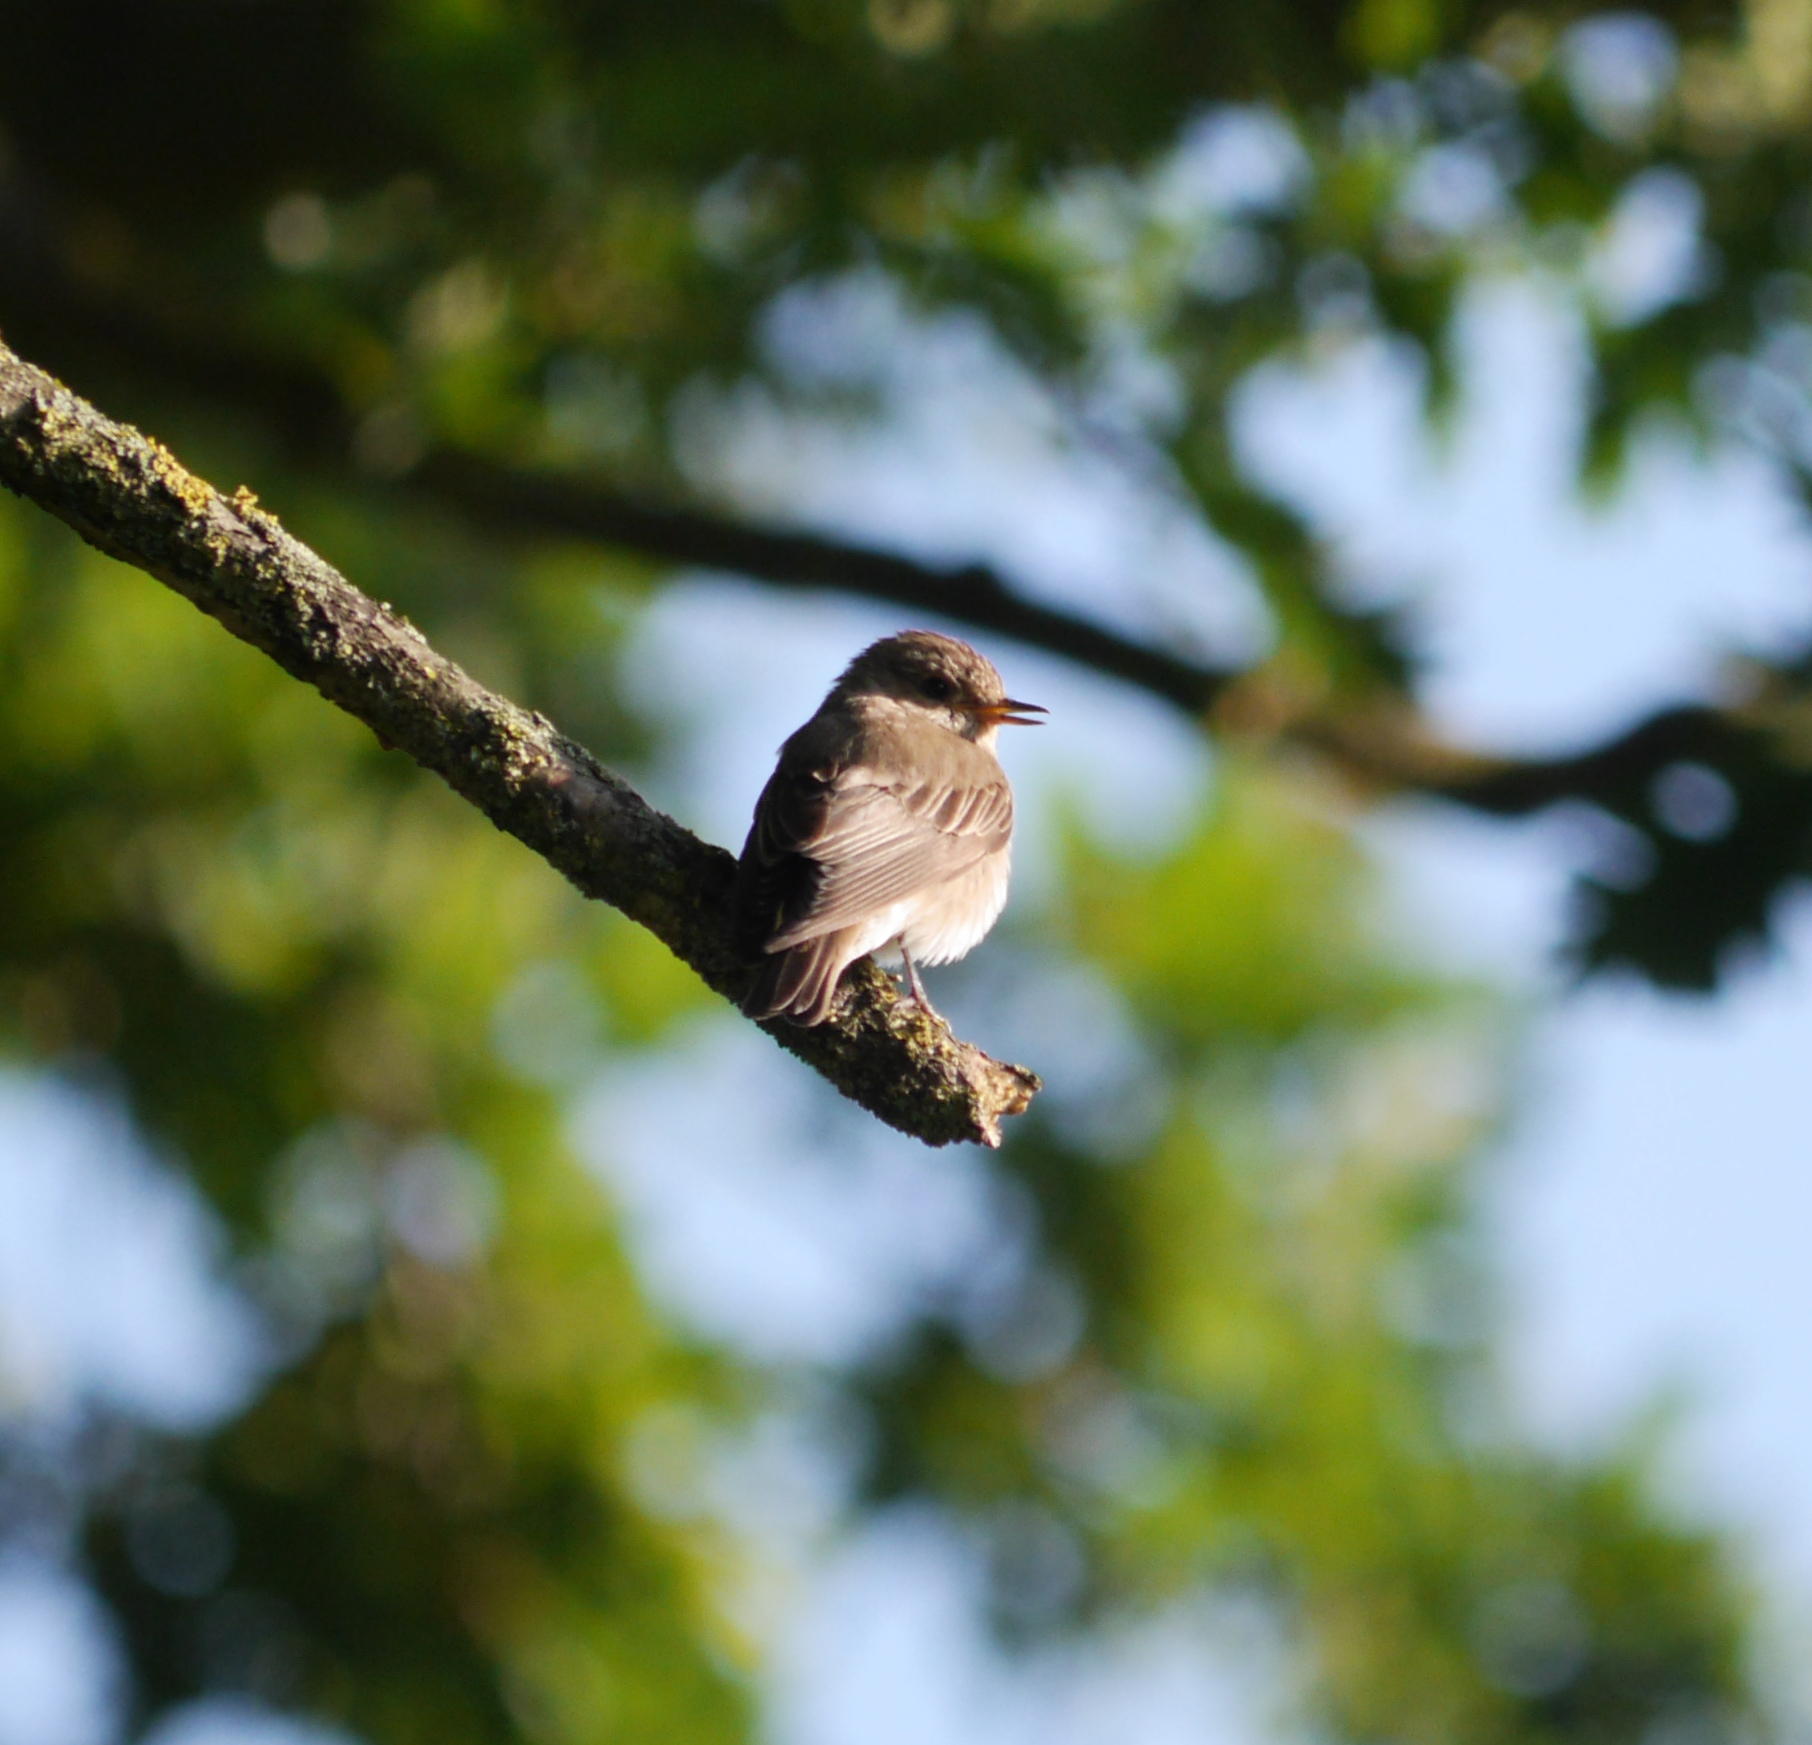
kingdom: Animalia
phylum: Chordata
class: Aves
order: Passeriformes
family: Muscicapidae
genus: Muscicapa
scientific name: Muscicapa striata
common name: Spotted flycatcher
